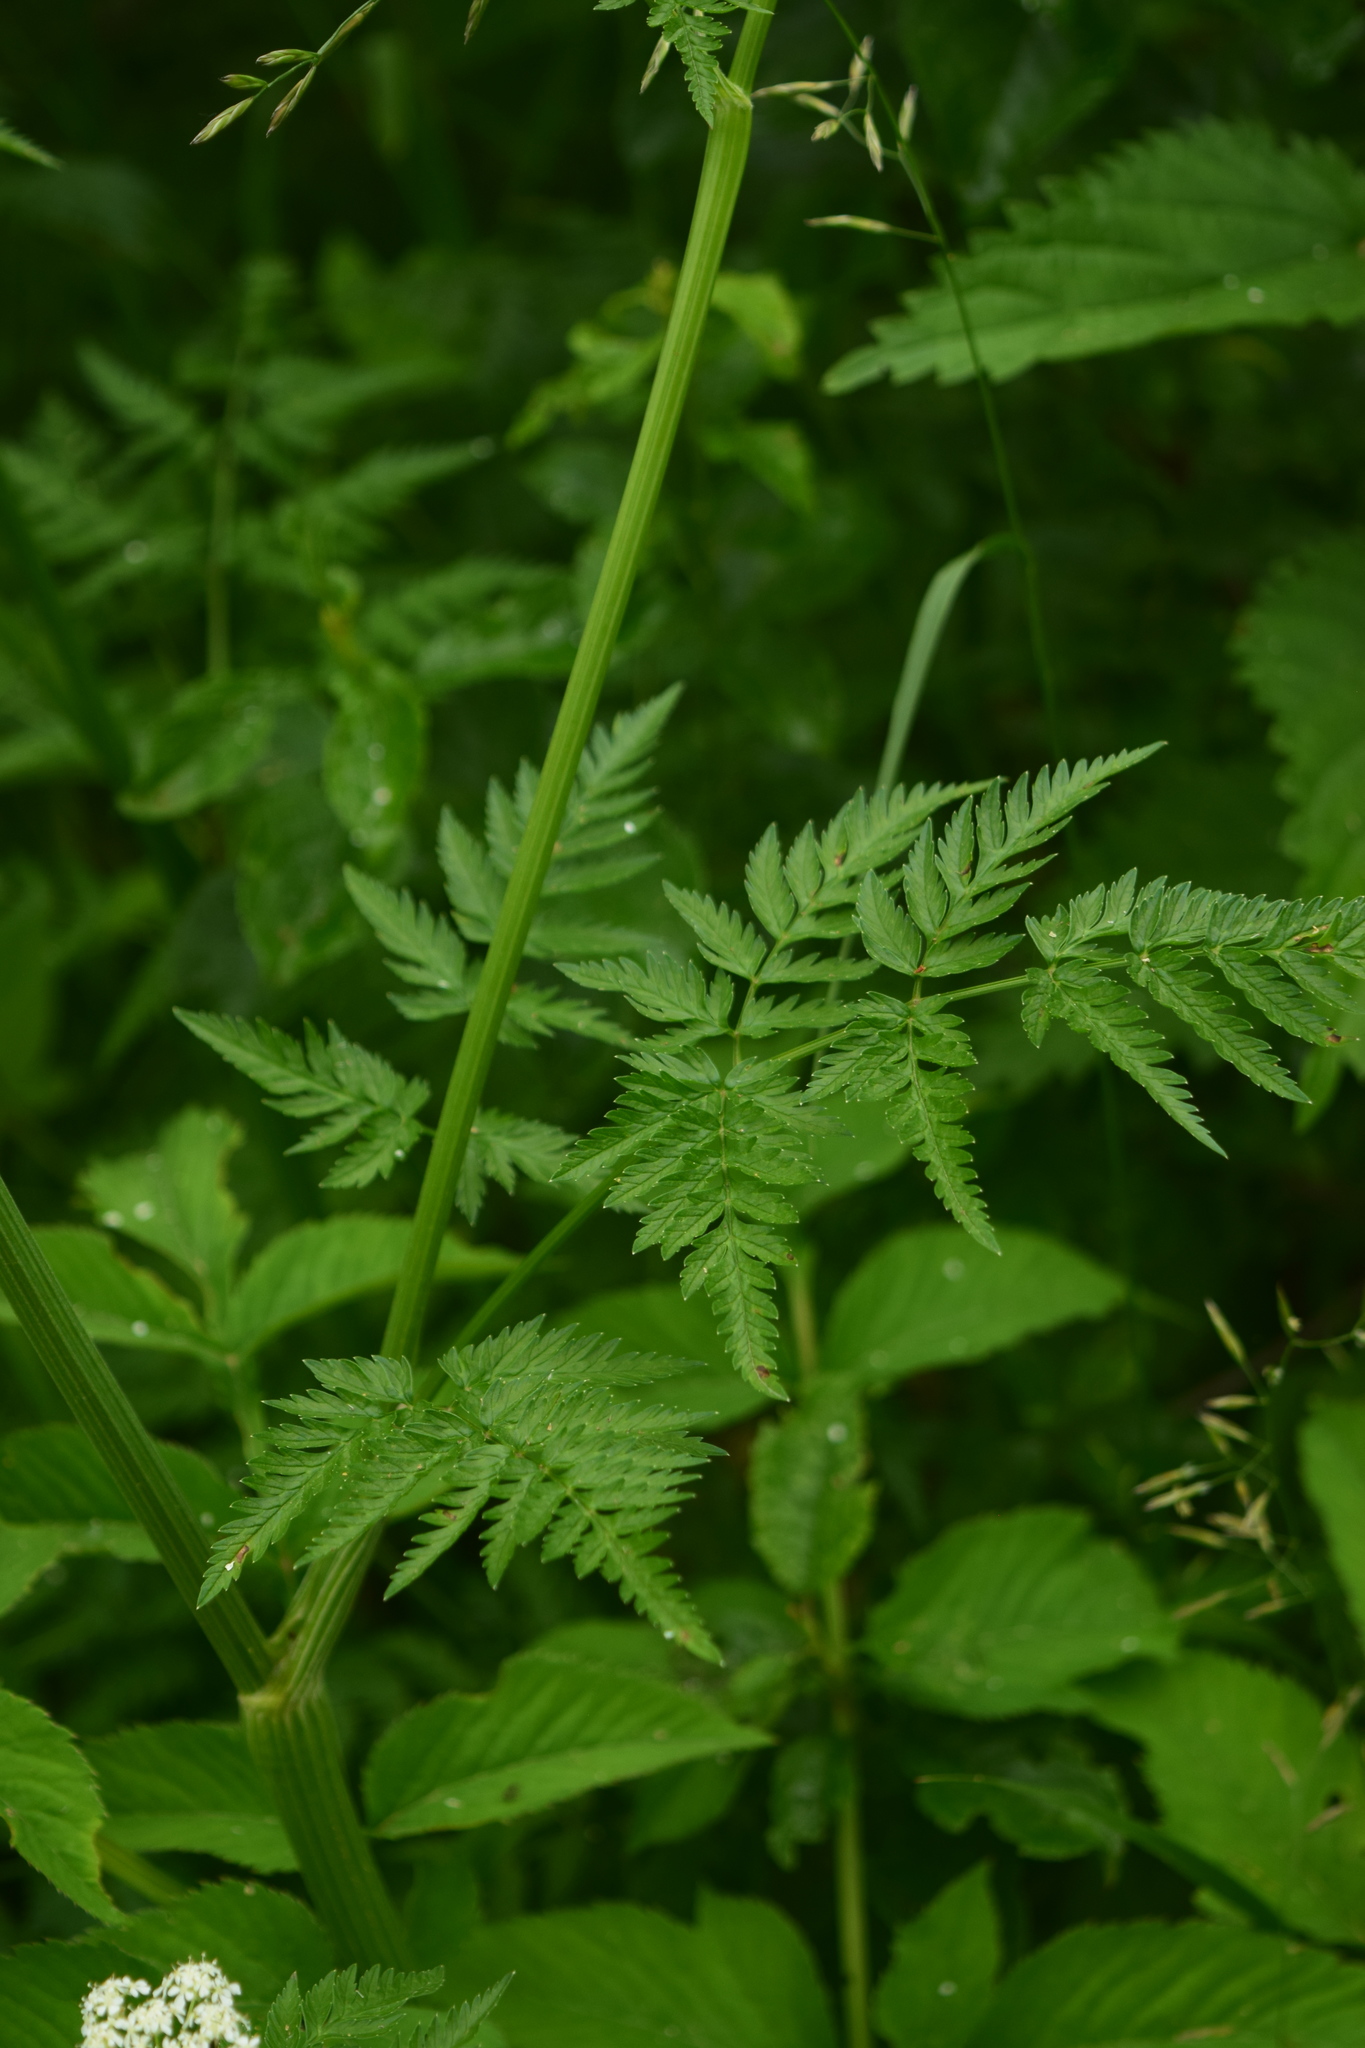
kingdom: Plantae
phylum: Tracheophyta
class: Magnoliopsida
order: Apiales
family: Apiaceae
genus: Anthriscus
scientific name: Anthriscus sylvestris
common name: Cow parsley
